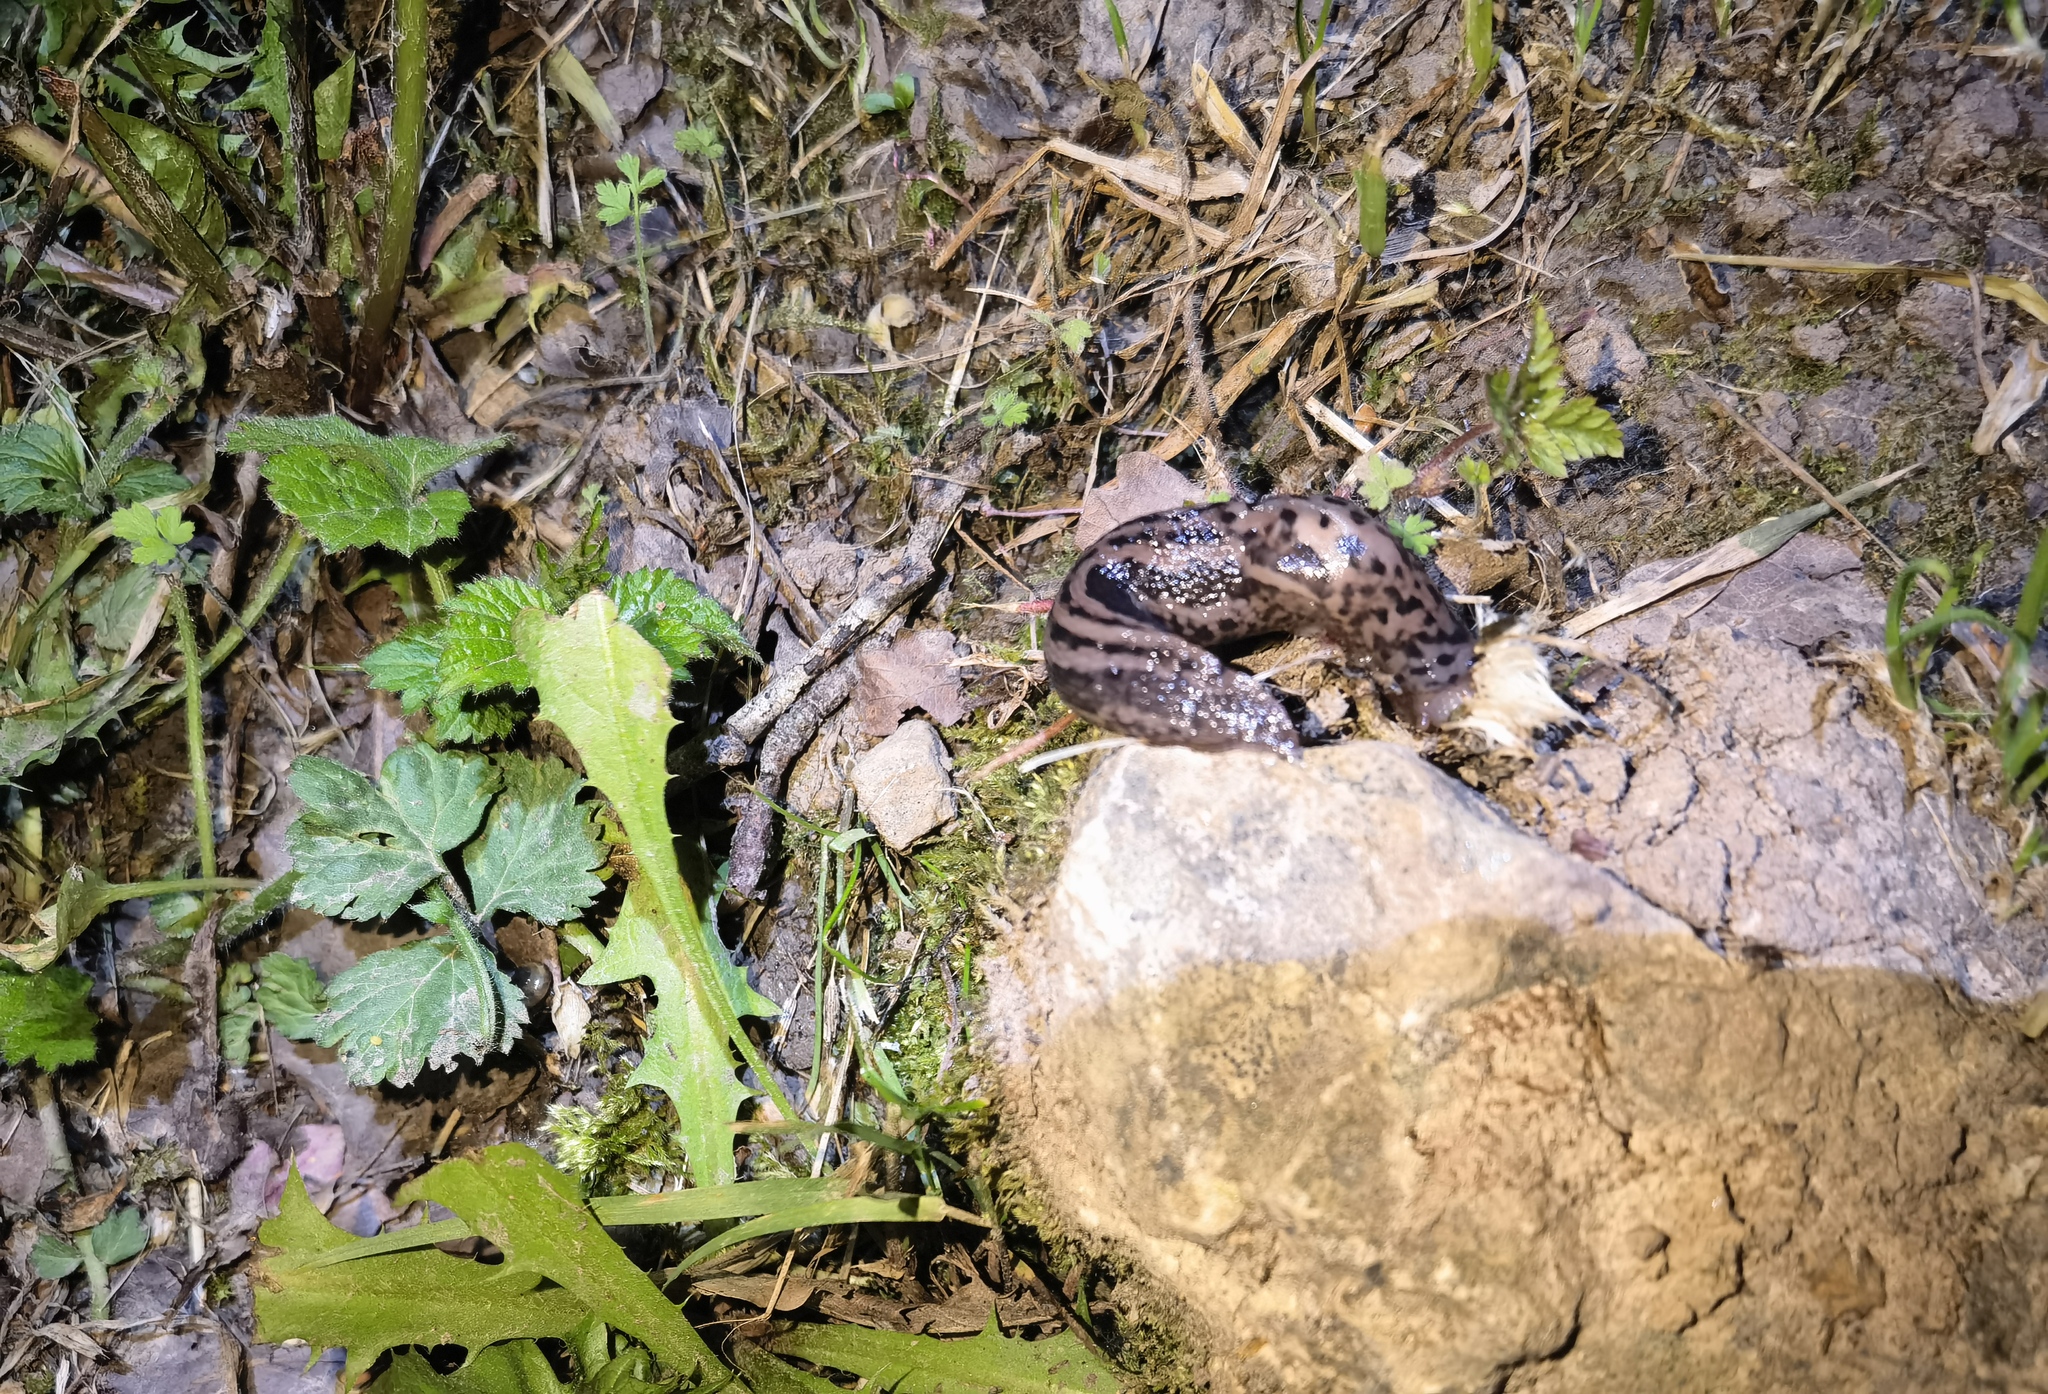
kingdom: Animalia
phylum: Mollusca
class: Gastropoda
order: Stylommatophora
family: Limacidae
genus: Limax
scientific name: Limax maximus
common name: Great grey slug
